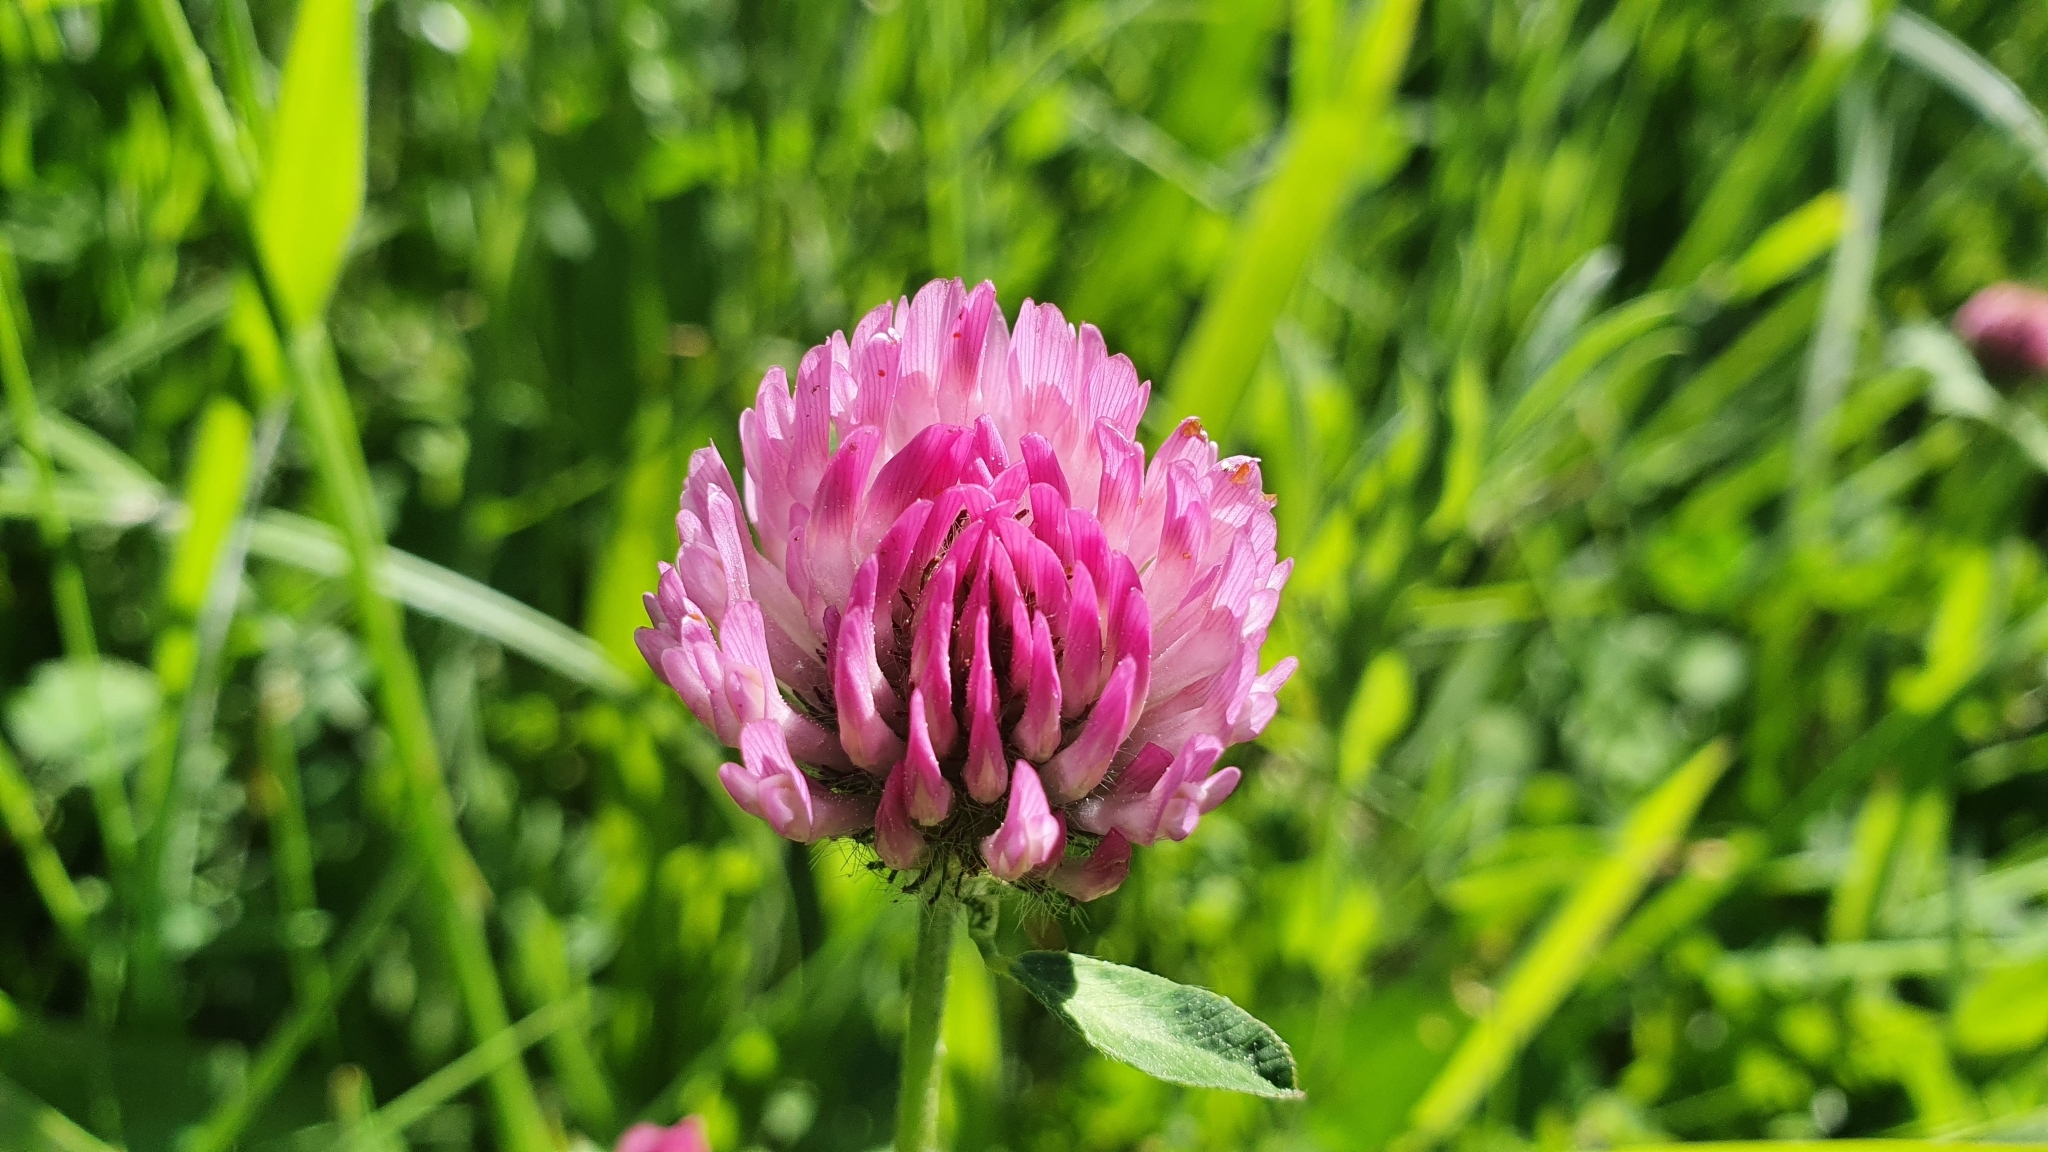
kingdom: Plantae
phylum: Tracheophyta
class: Magnoliopsida
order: Fabales
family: Fabaceae
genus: Trifolium
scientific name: Trifolium pratense
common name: Red clover
